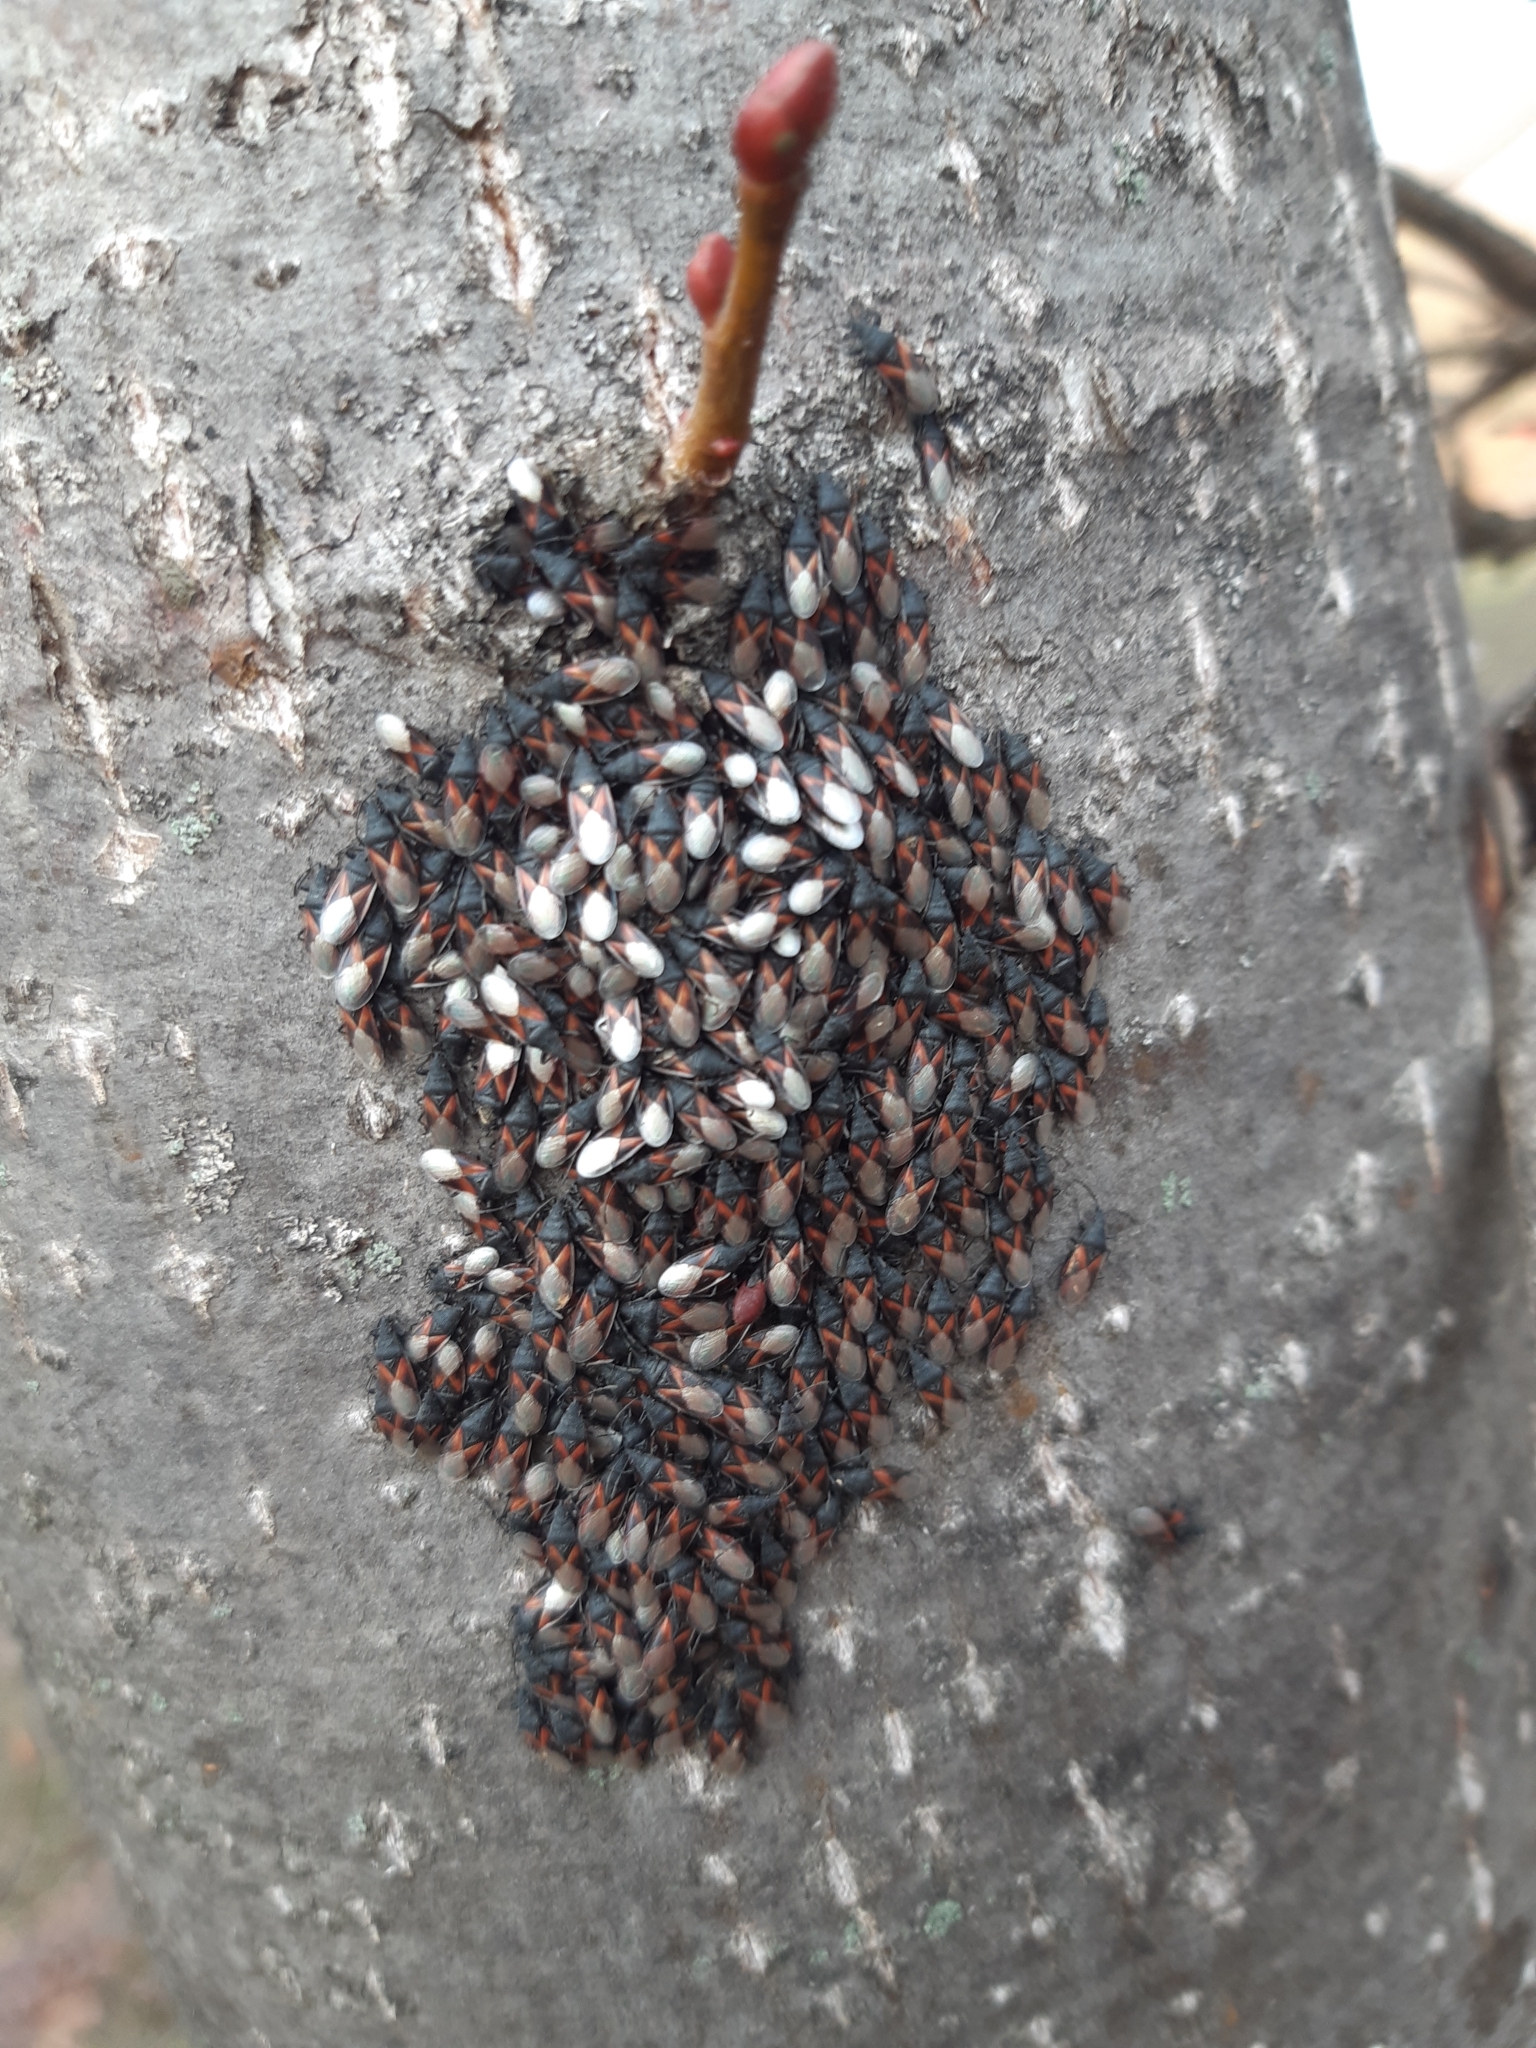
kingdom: Animalia
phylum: Arthropoda
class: Insecta
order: Hemiptera
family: Oxycarenidae
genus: Oxycarenus
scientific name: Oxycarenus lavaterae
